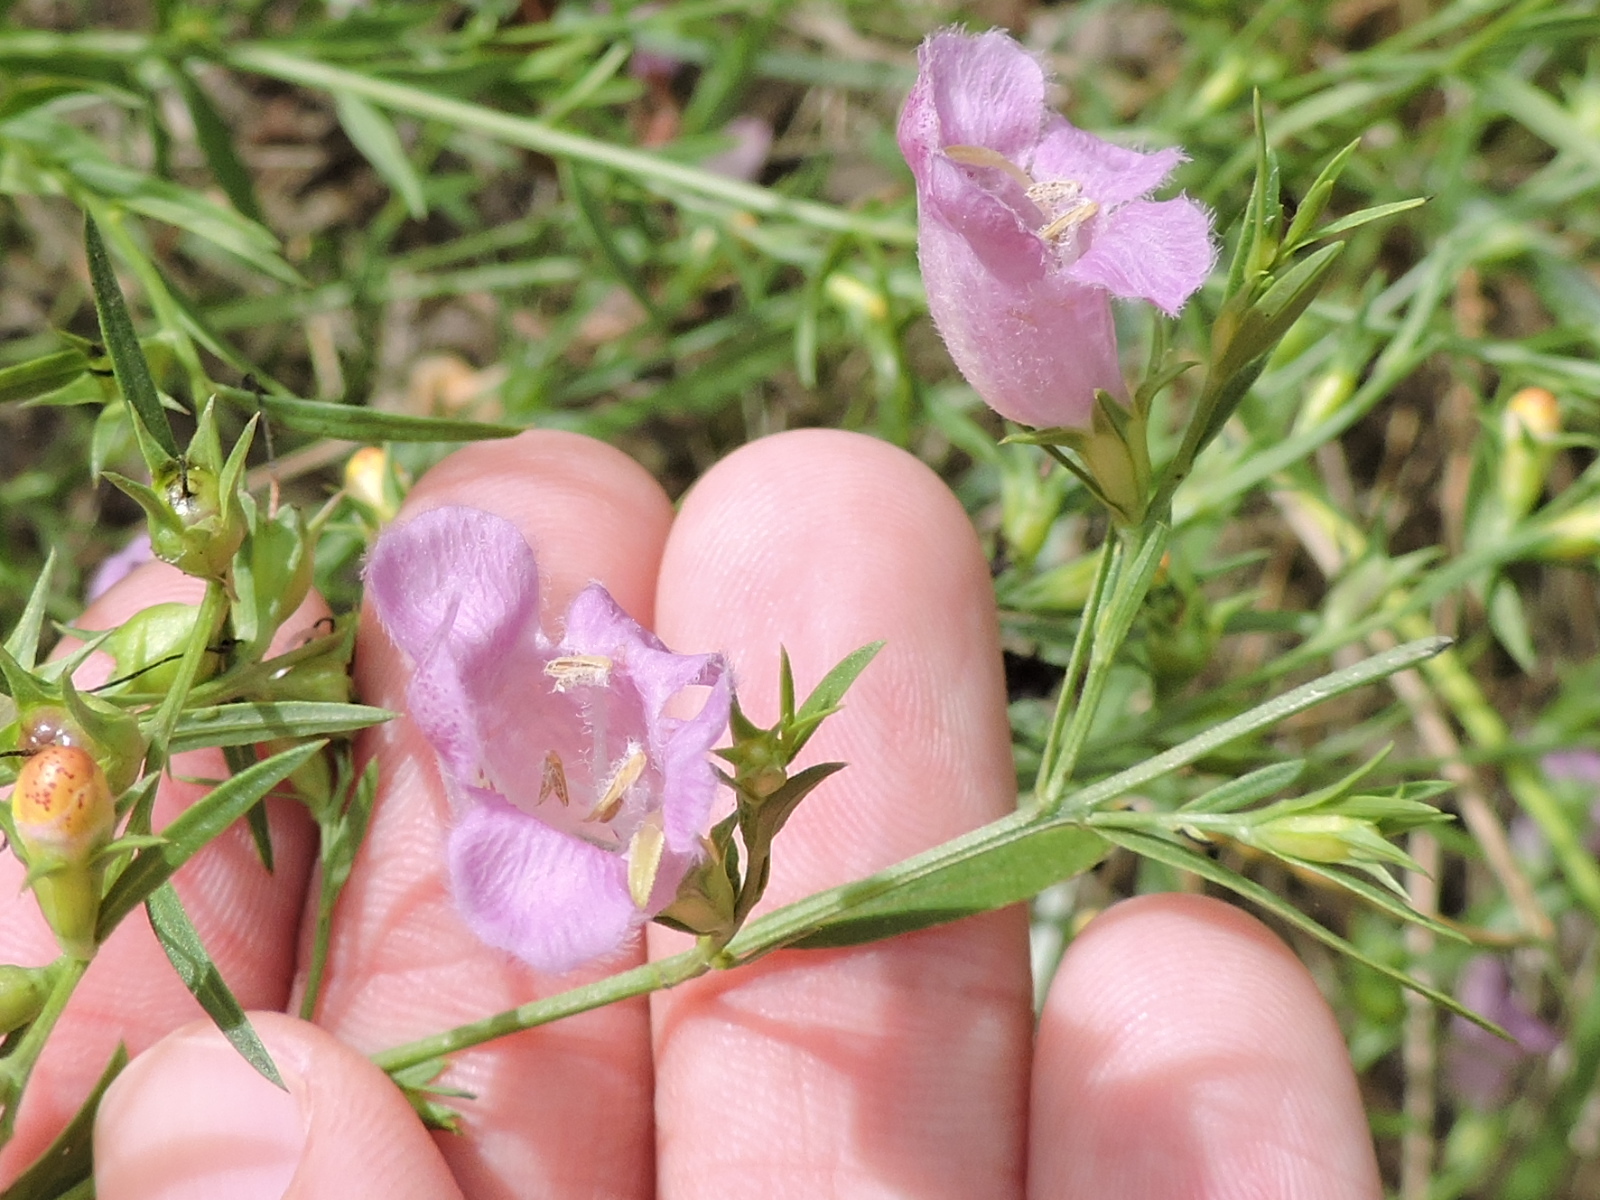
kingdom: Plantae
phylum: Tracheophyta
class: Magnoliopsida
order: Lamiales
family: Orobanchaceae
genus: Agalinis
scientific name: Agalinis heterophylla
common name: Prairie agalinis
